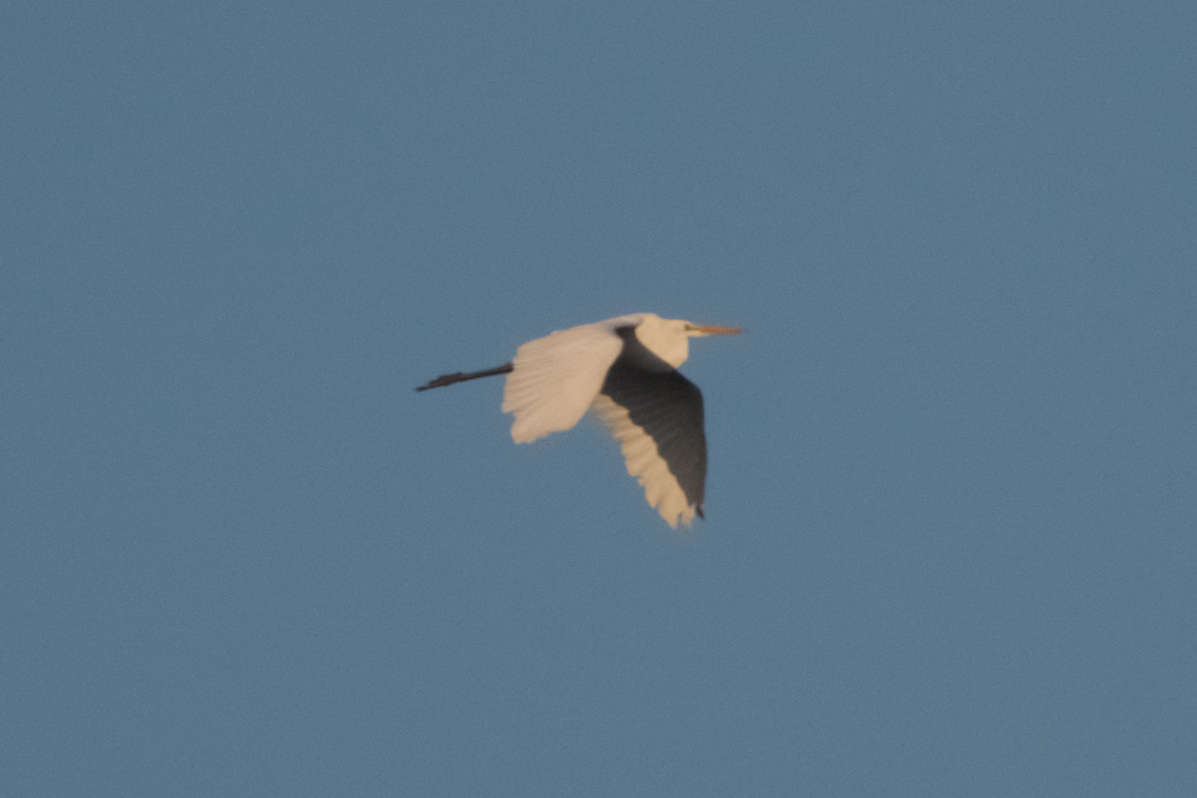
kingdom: Animalia
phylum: Chordata
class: Aves
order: Pelecaniformes
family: Ardeidae
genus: Ardea
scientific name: Ardea alba
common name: Great egret
